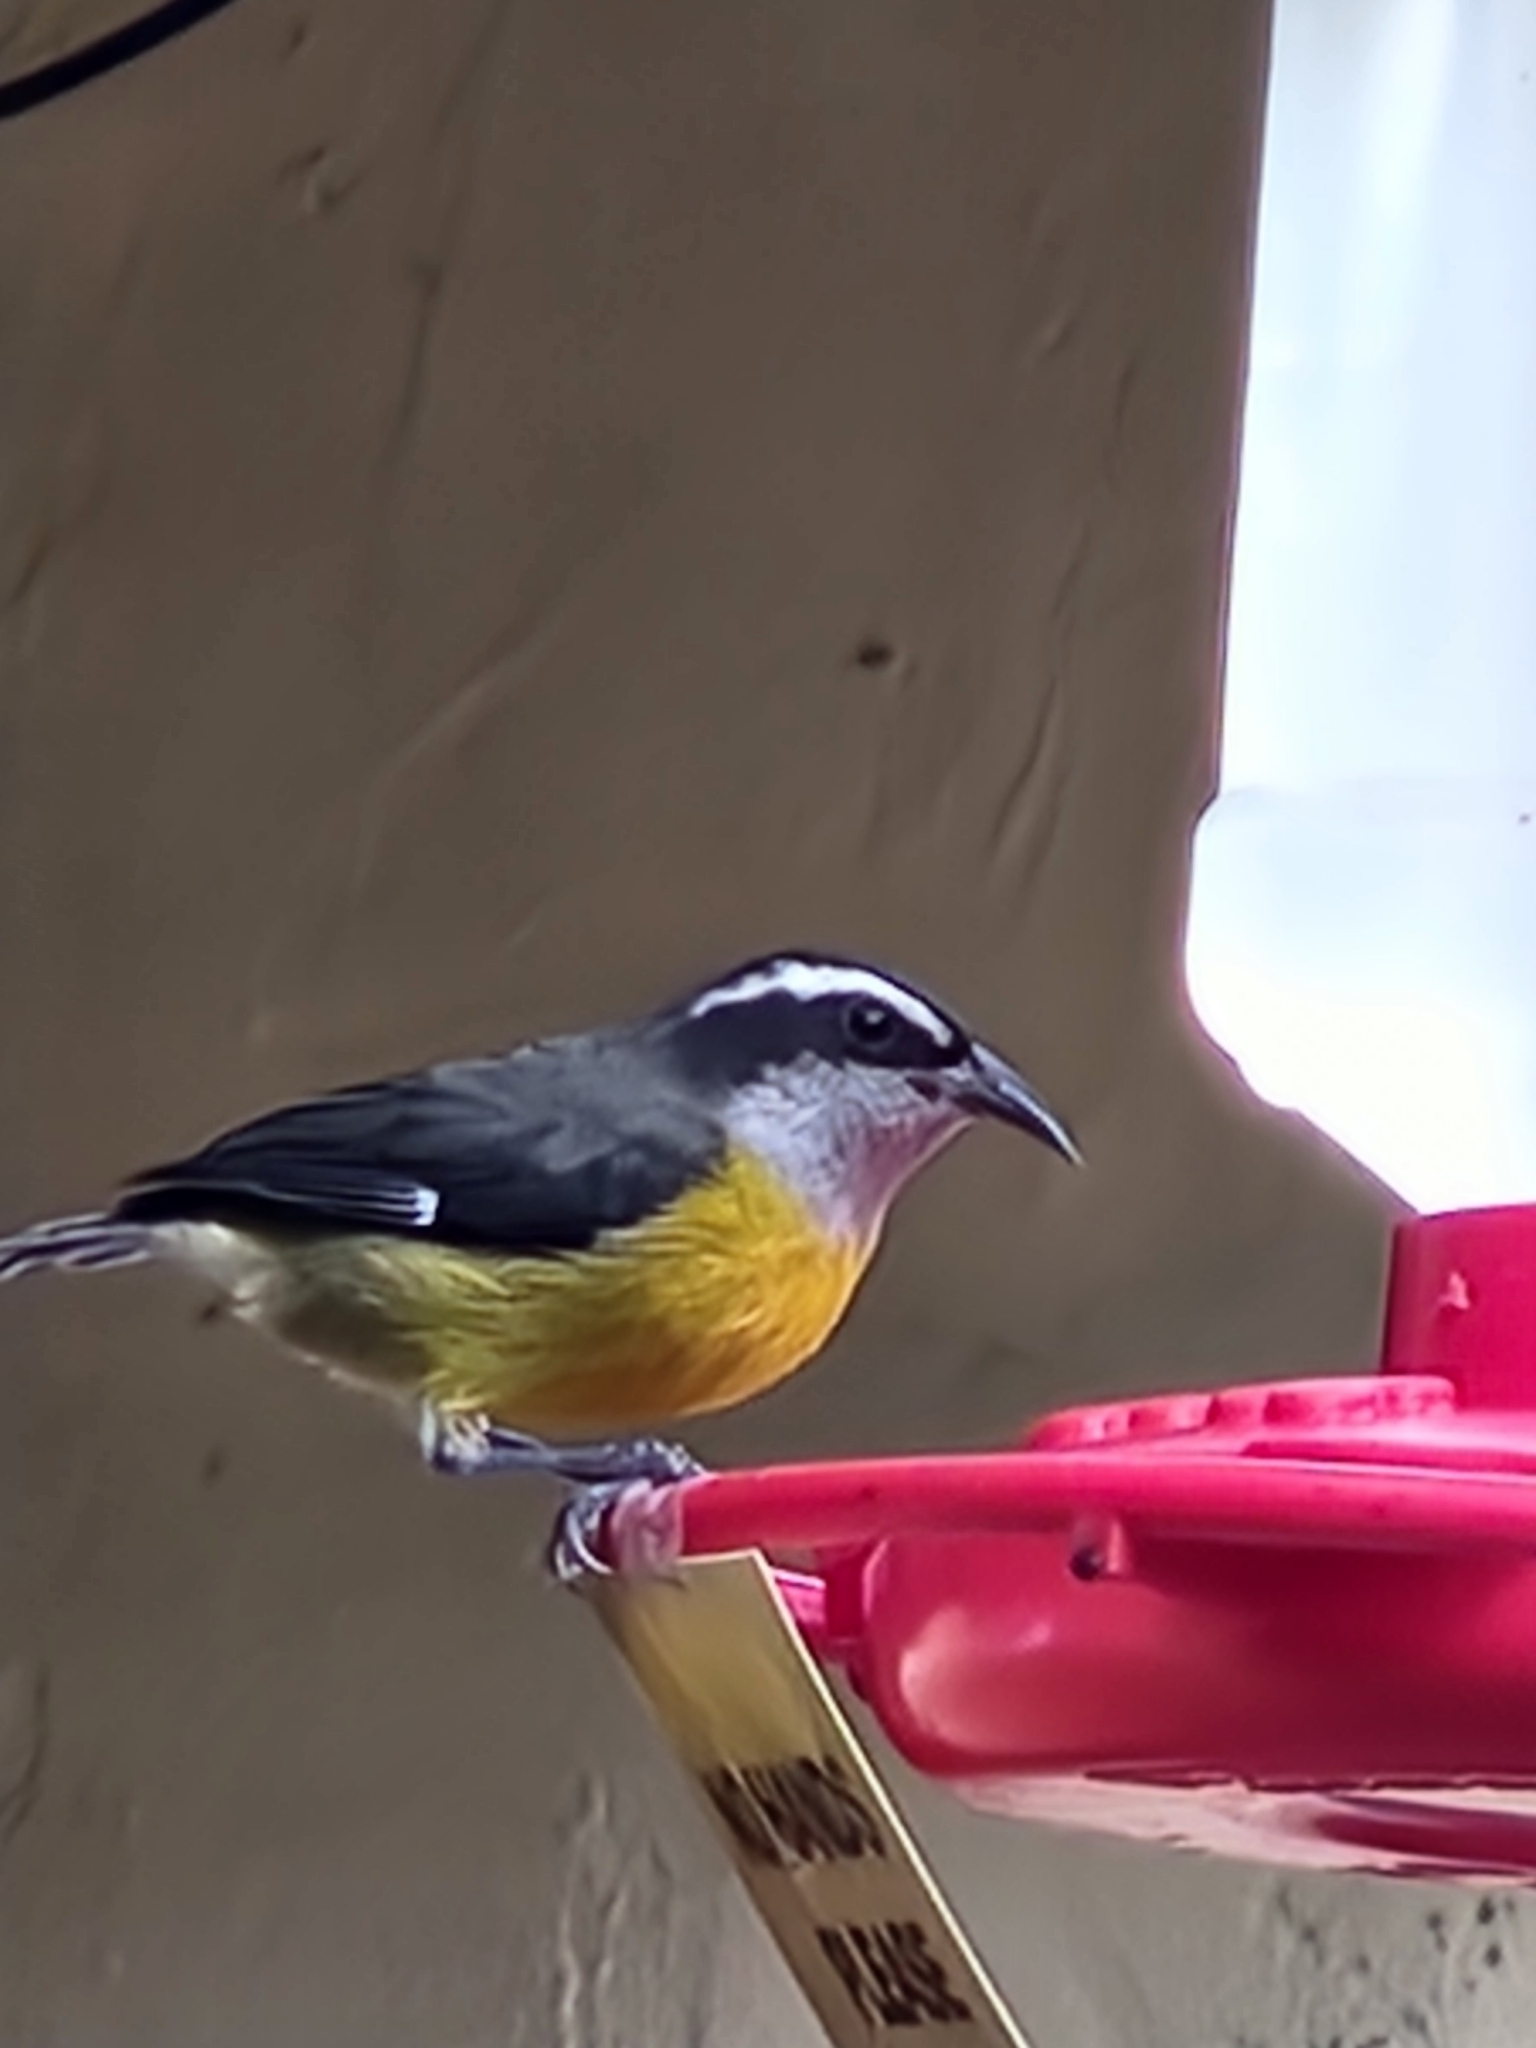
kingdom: Animalia
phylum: Chordata
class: Aves
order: Passeriformes
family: Thraupidae
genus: Coereba
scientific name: Coereba flaveola
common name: Bananaquit
